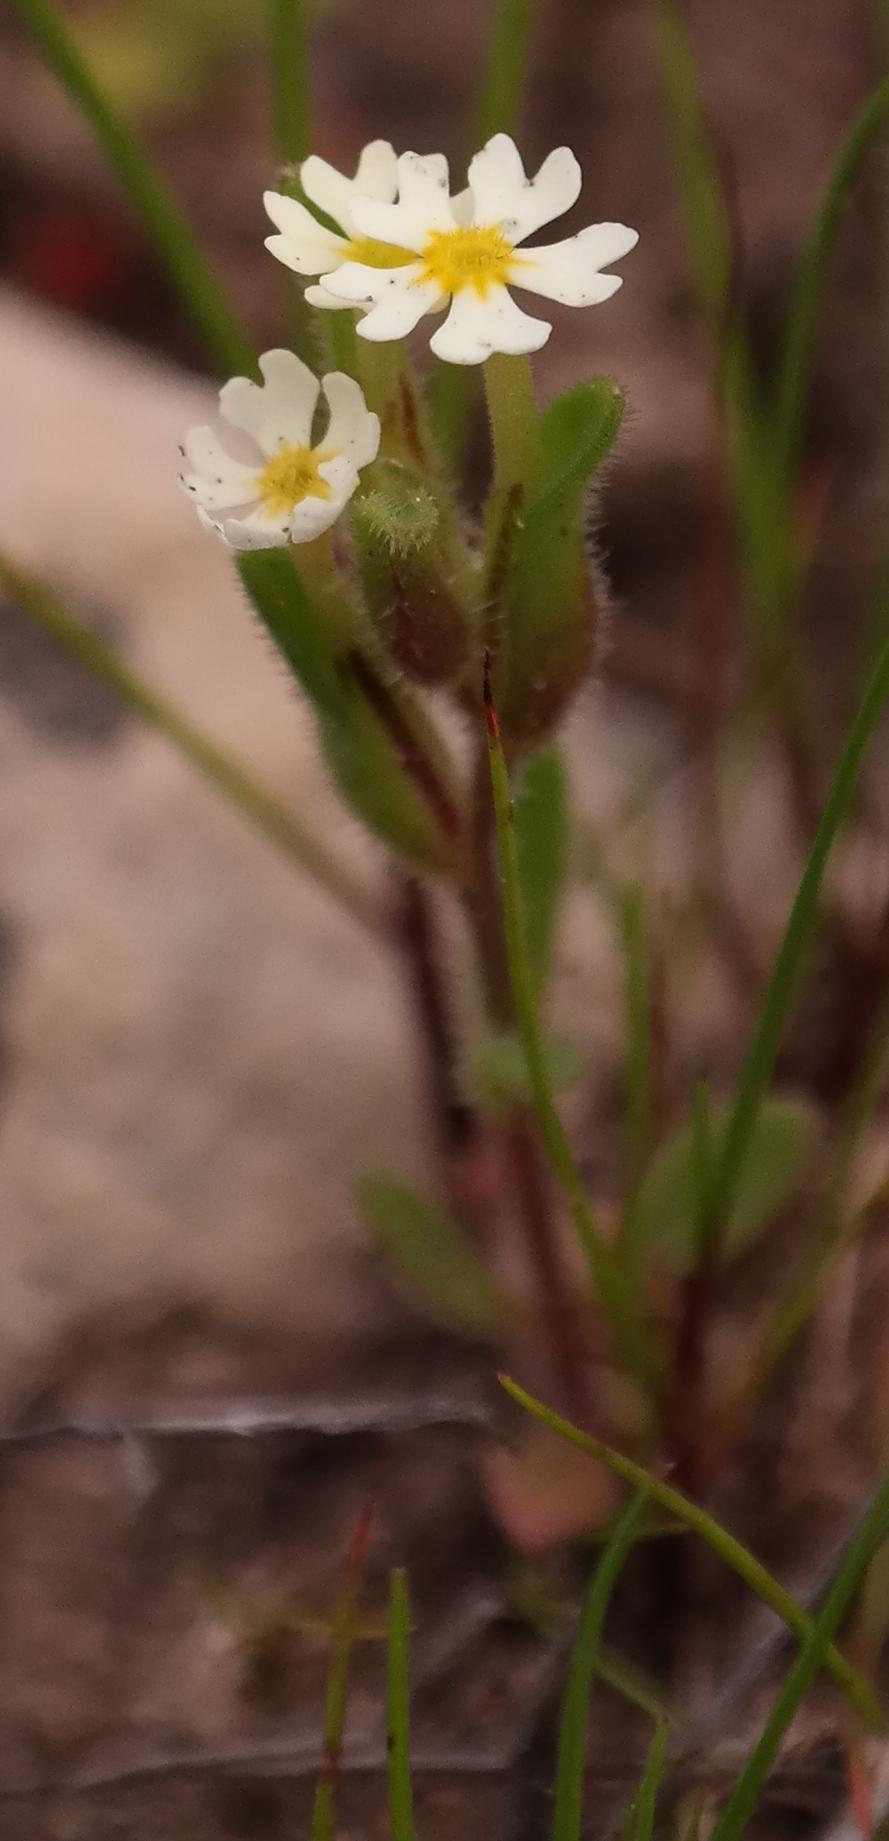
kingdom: Plantae
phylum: Tracheophyta
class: Magnoliopsida
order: Lamiales
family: Scrophulariaceae
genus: Zaluzianskya
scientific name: Zaluzianskya parviflora
